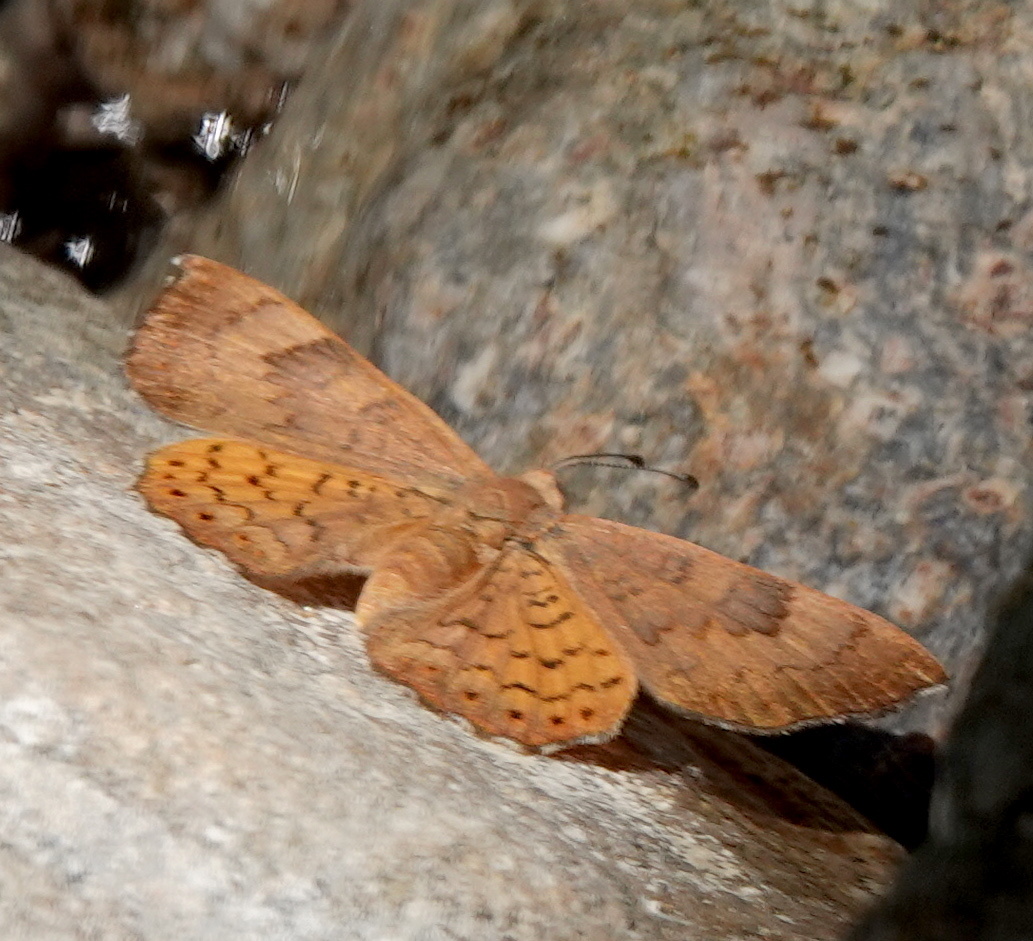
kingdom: Animalia
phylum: Arthropoda
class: Insecta
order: Lepidoptera
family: Riodinidae
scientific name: Riodinidae
